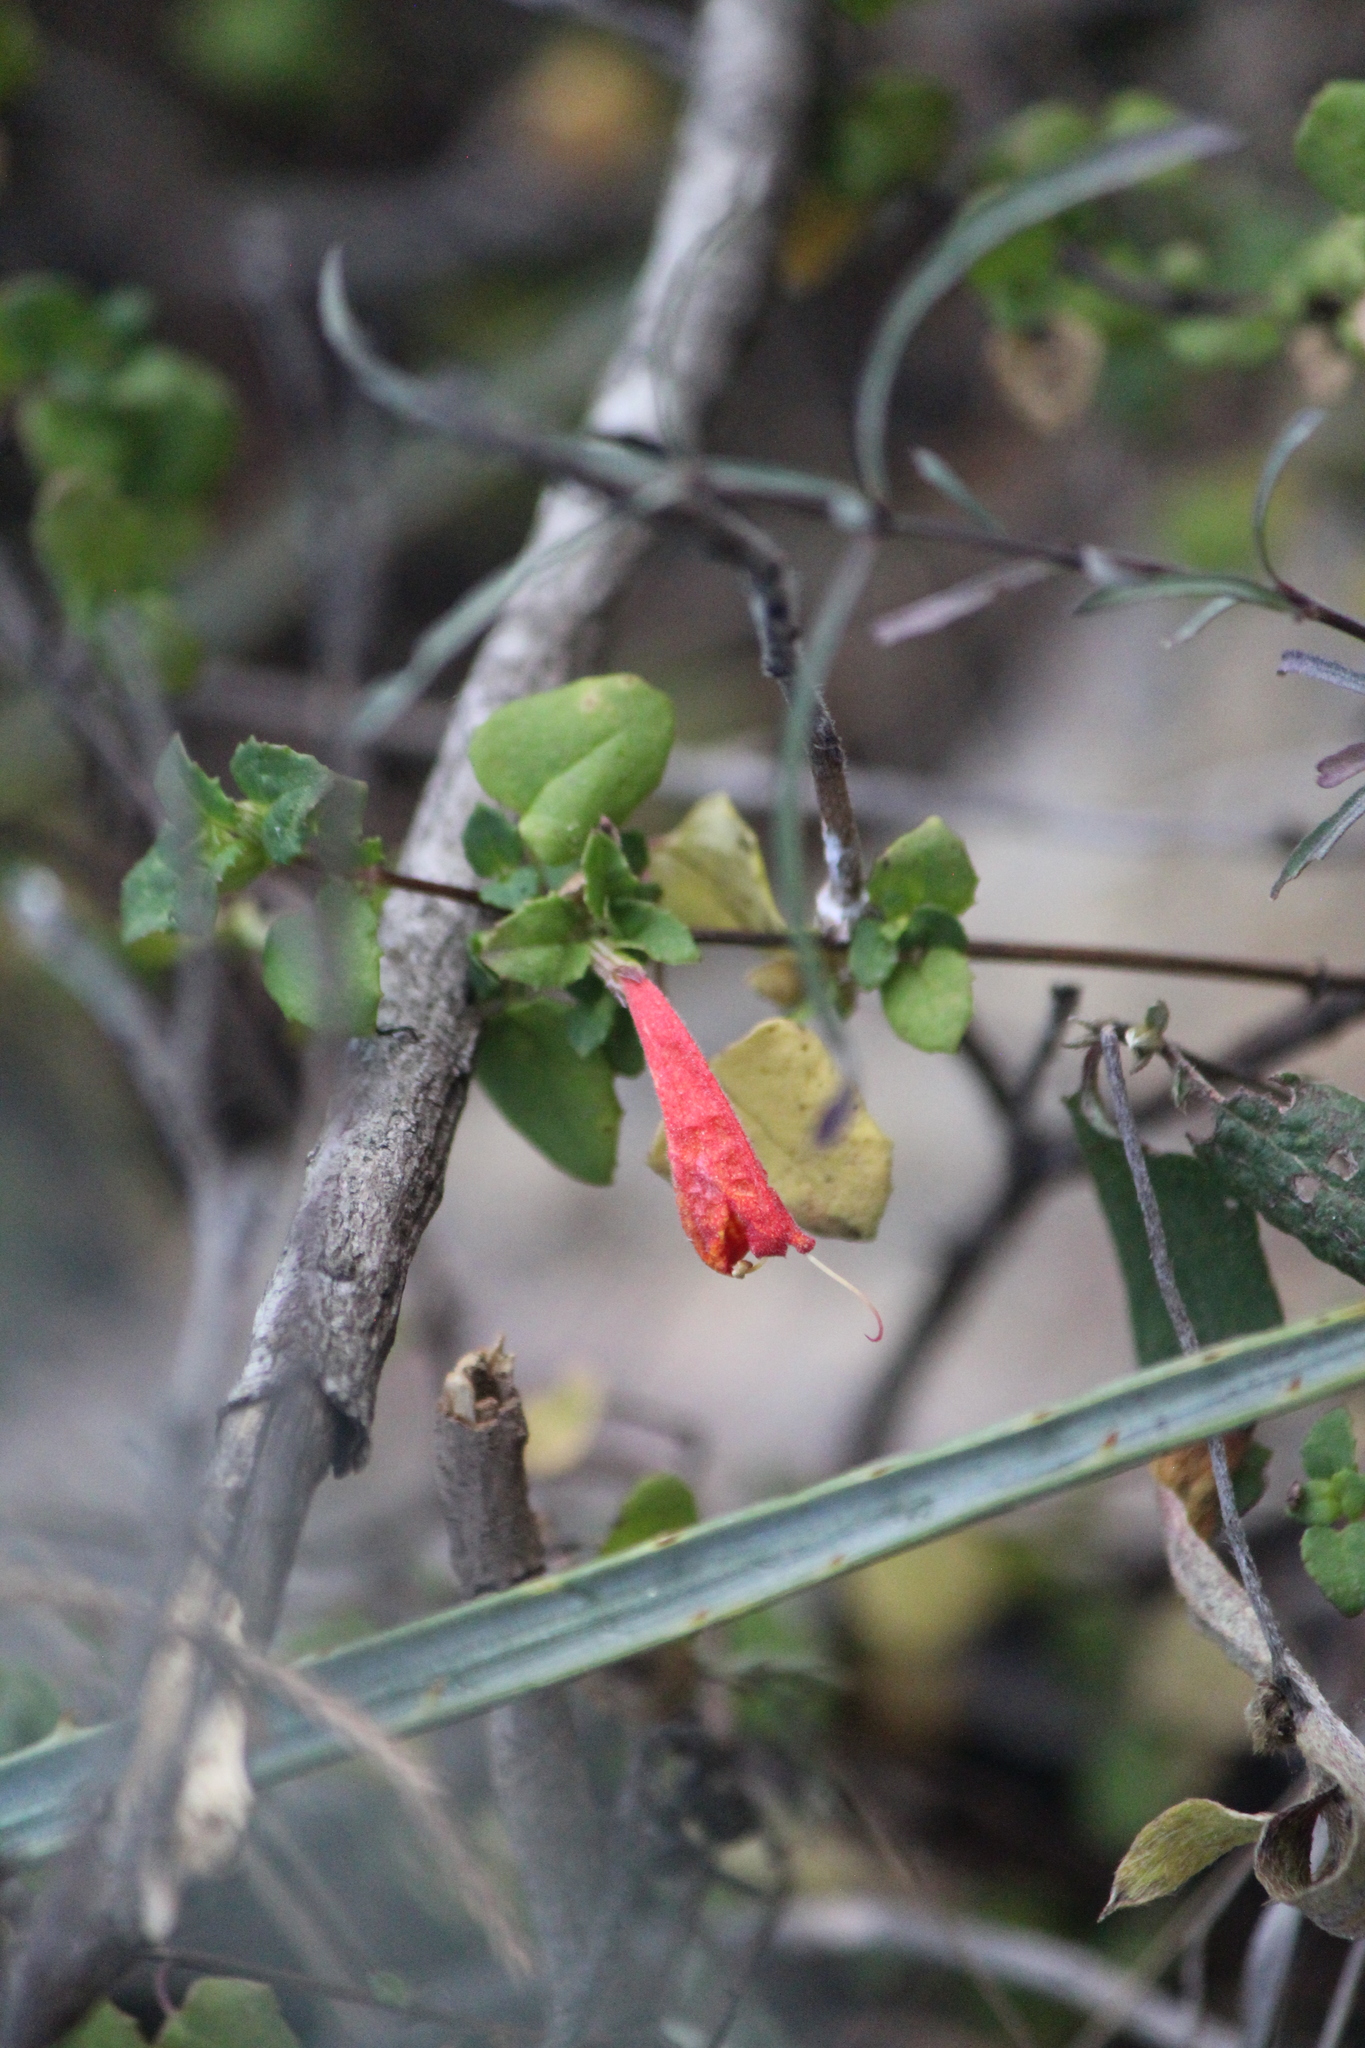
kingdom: Plantae
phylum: Tracheophyta
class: Magnoliopsida
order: Lamiales
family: Lamiaceae
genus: Clinopodium
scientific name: Clinopodium mexicanum
